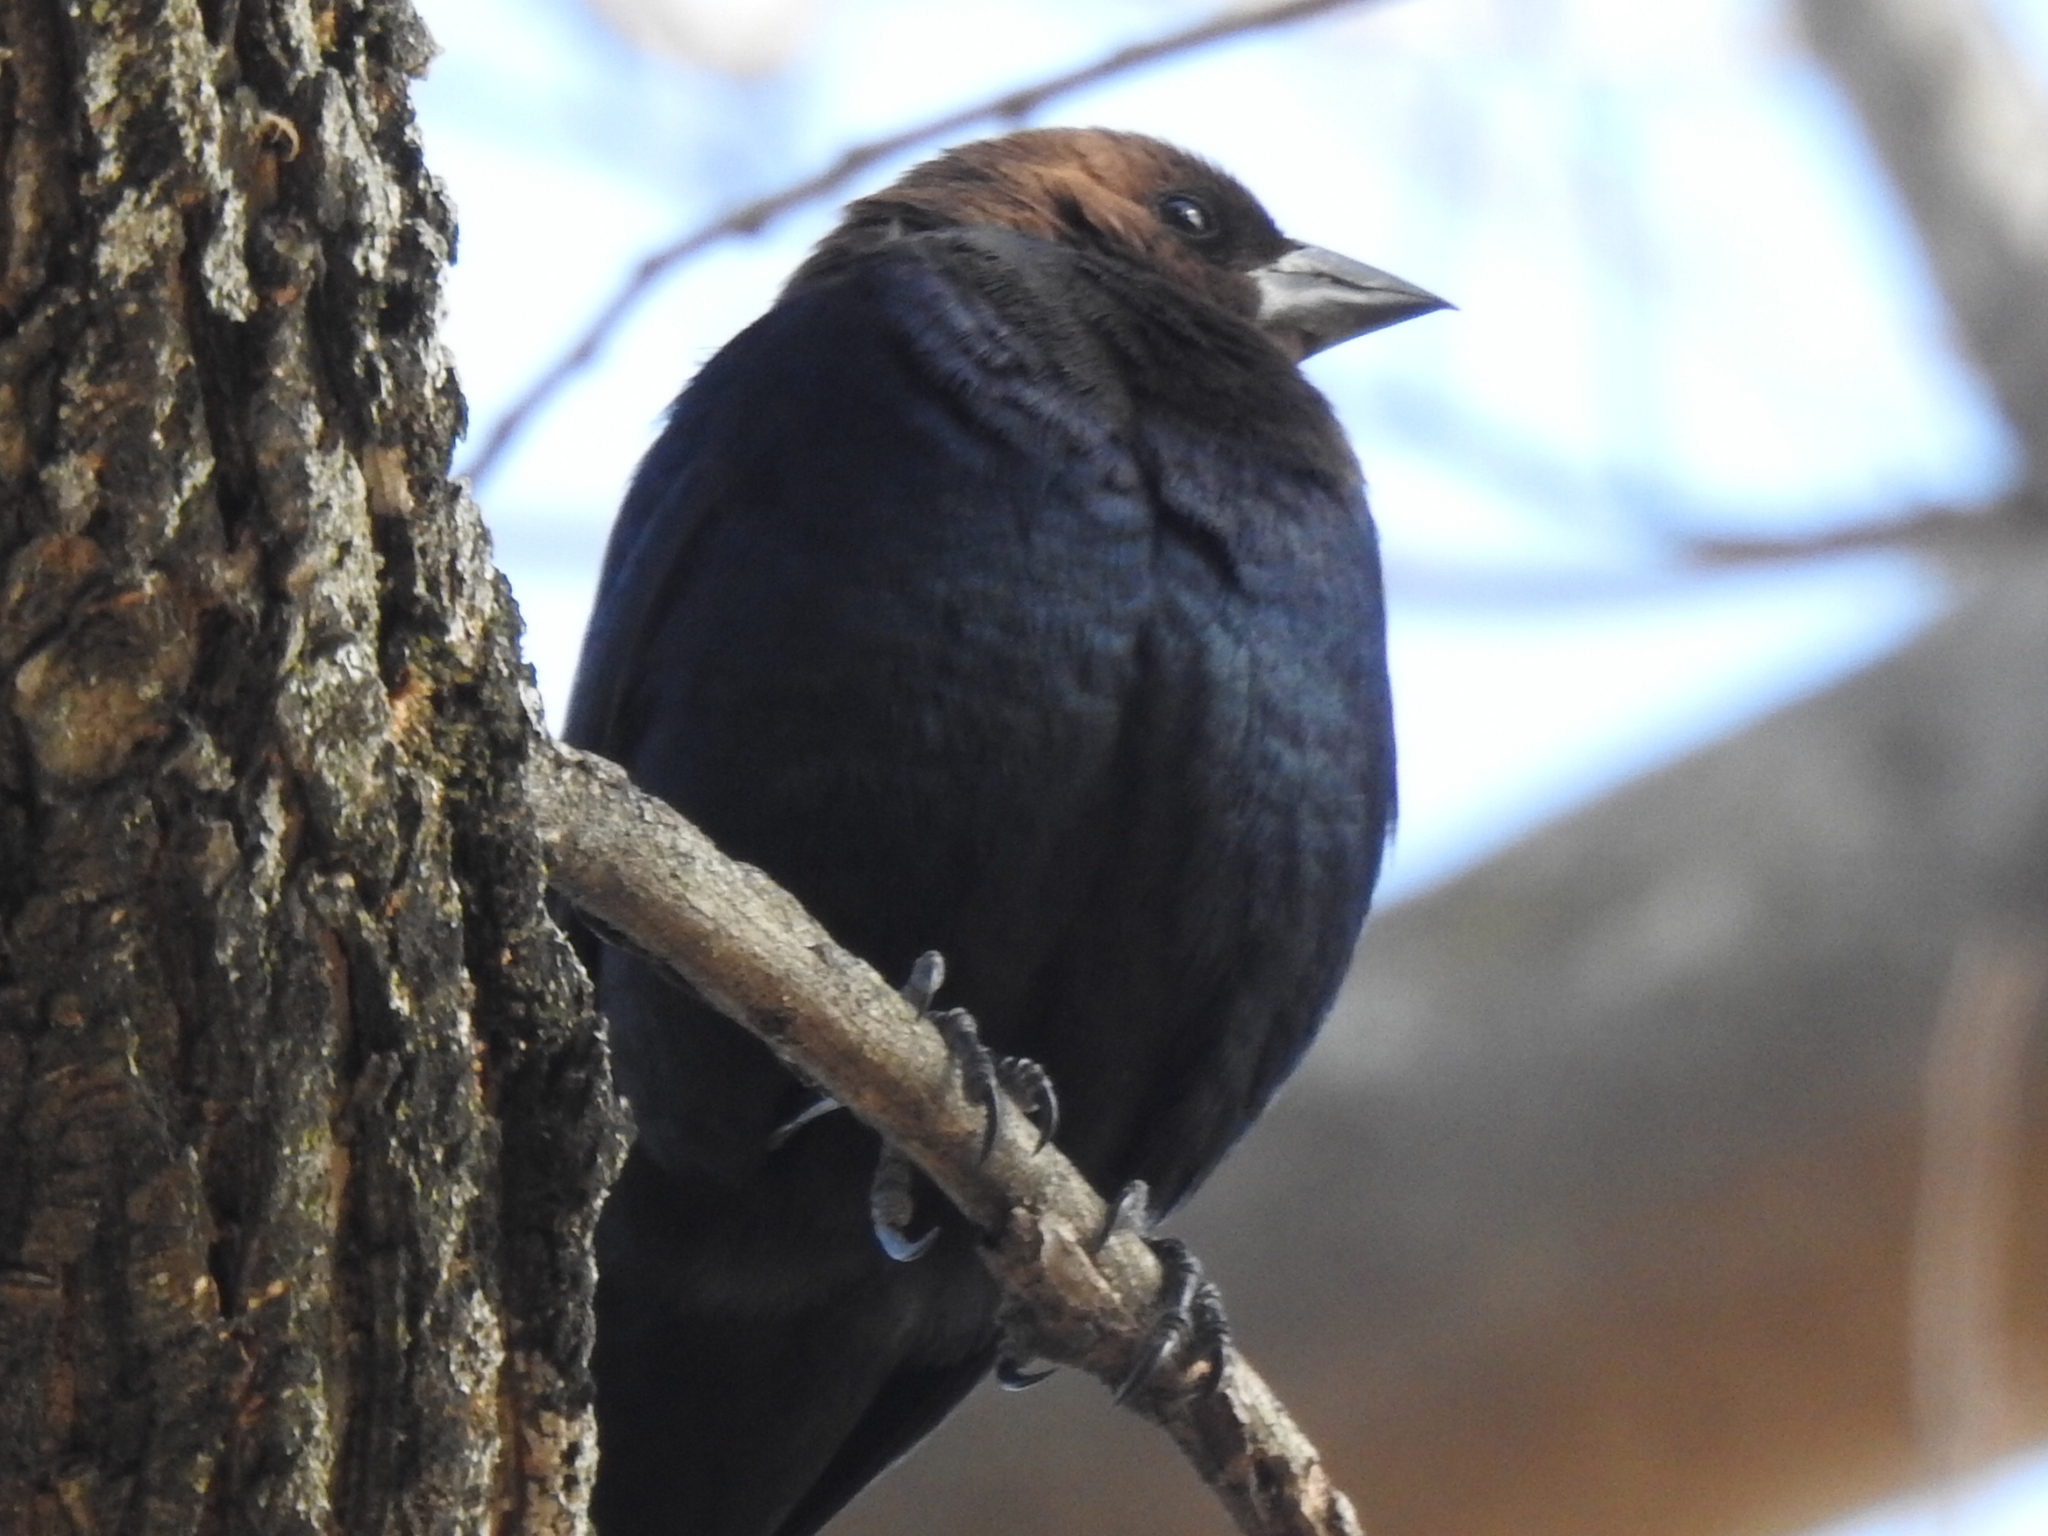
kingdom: Animalia
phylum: Chordata
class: Aves
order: Passeriformes
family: Icteridae
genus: Molothrus
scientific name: Molothrus ater
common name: Brown-headed cowbird
